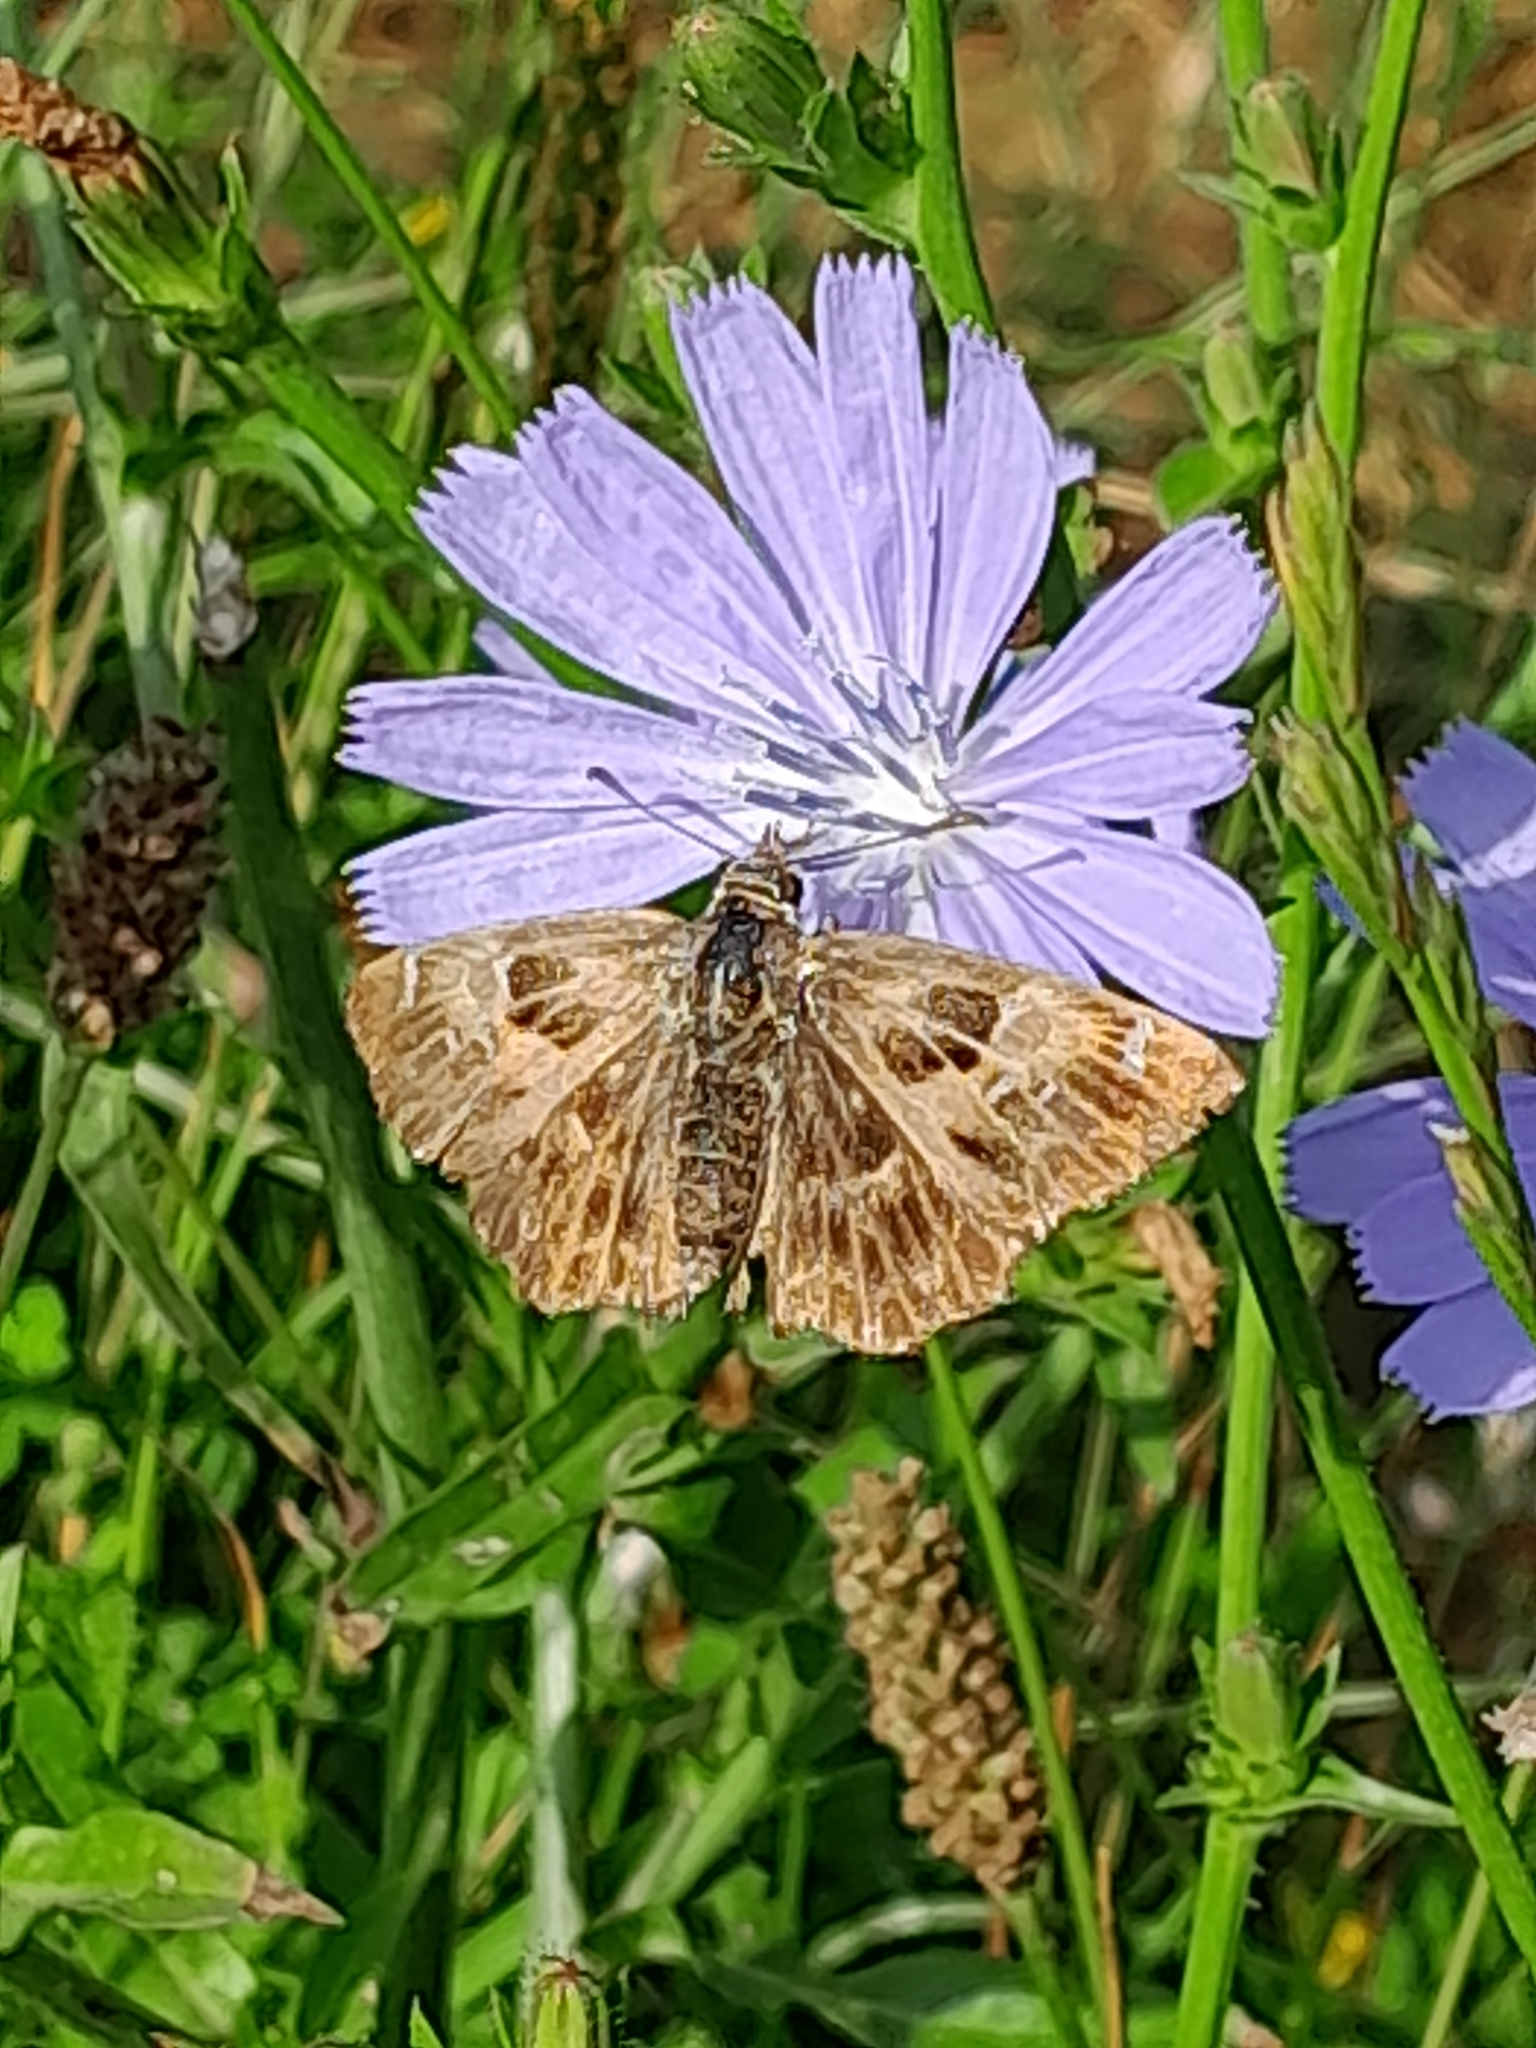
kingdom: Animalia
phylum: Arthropoda
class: Insecta
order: Lepidoptera
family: Hesperiidae
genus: Carcharodus
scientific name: Carcharodus alceae
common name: Mallow skipper
